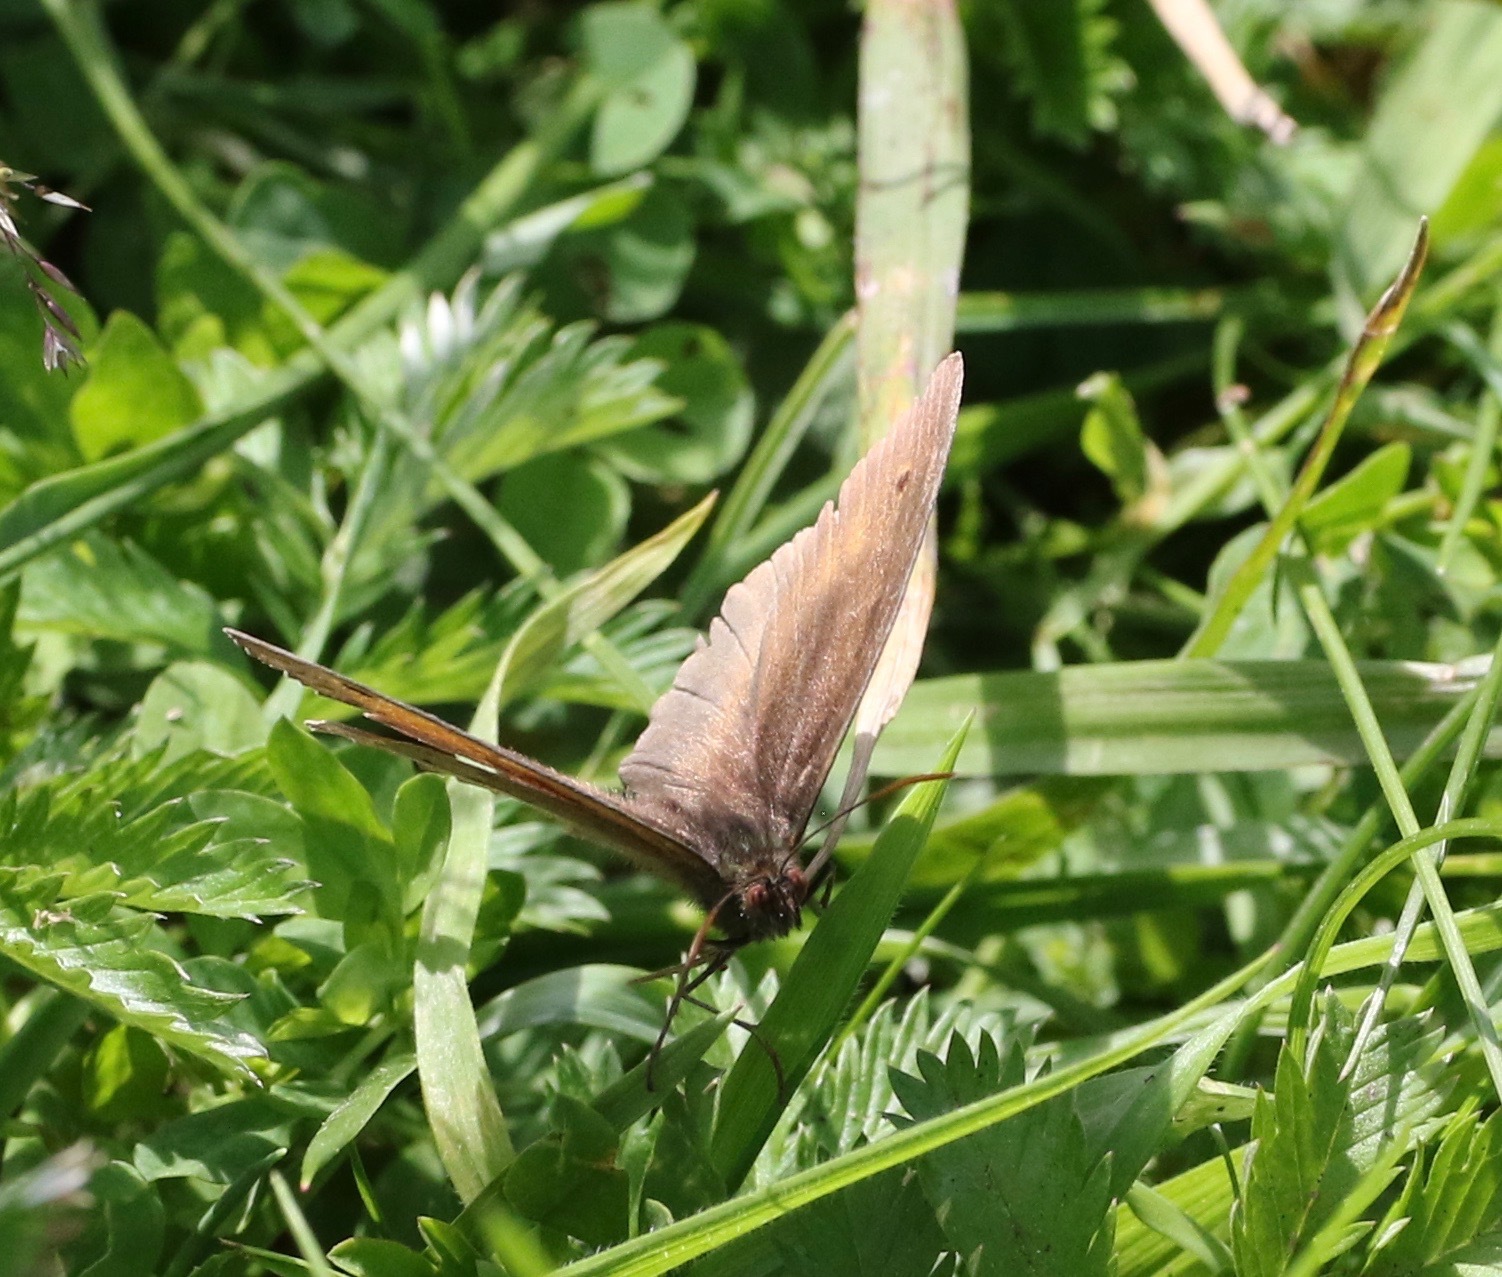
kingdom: Animalia
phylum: Arthropoda
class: Insecta
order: Lepidoptera
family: Nymphalidae
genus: Maniola
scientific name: Maniola jurtina
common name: Meadow brown
